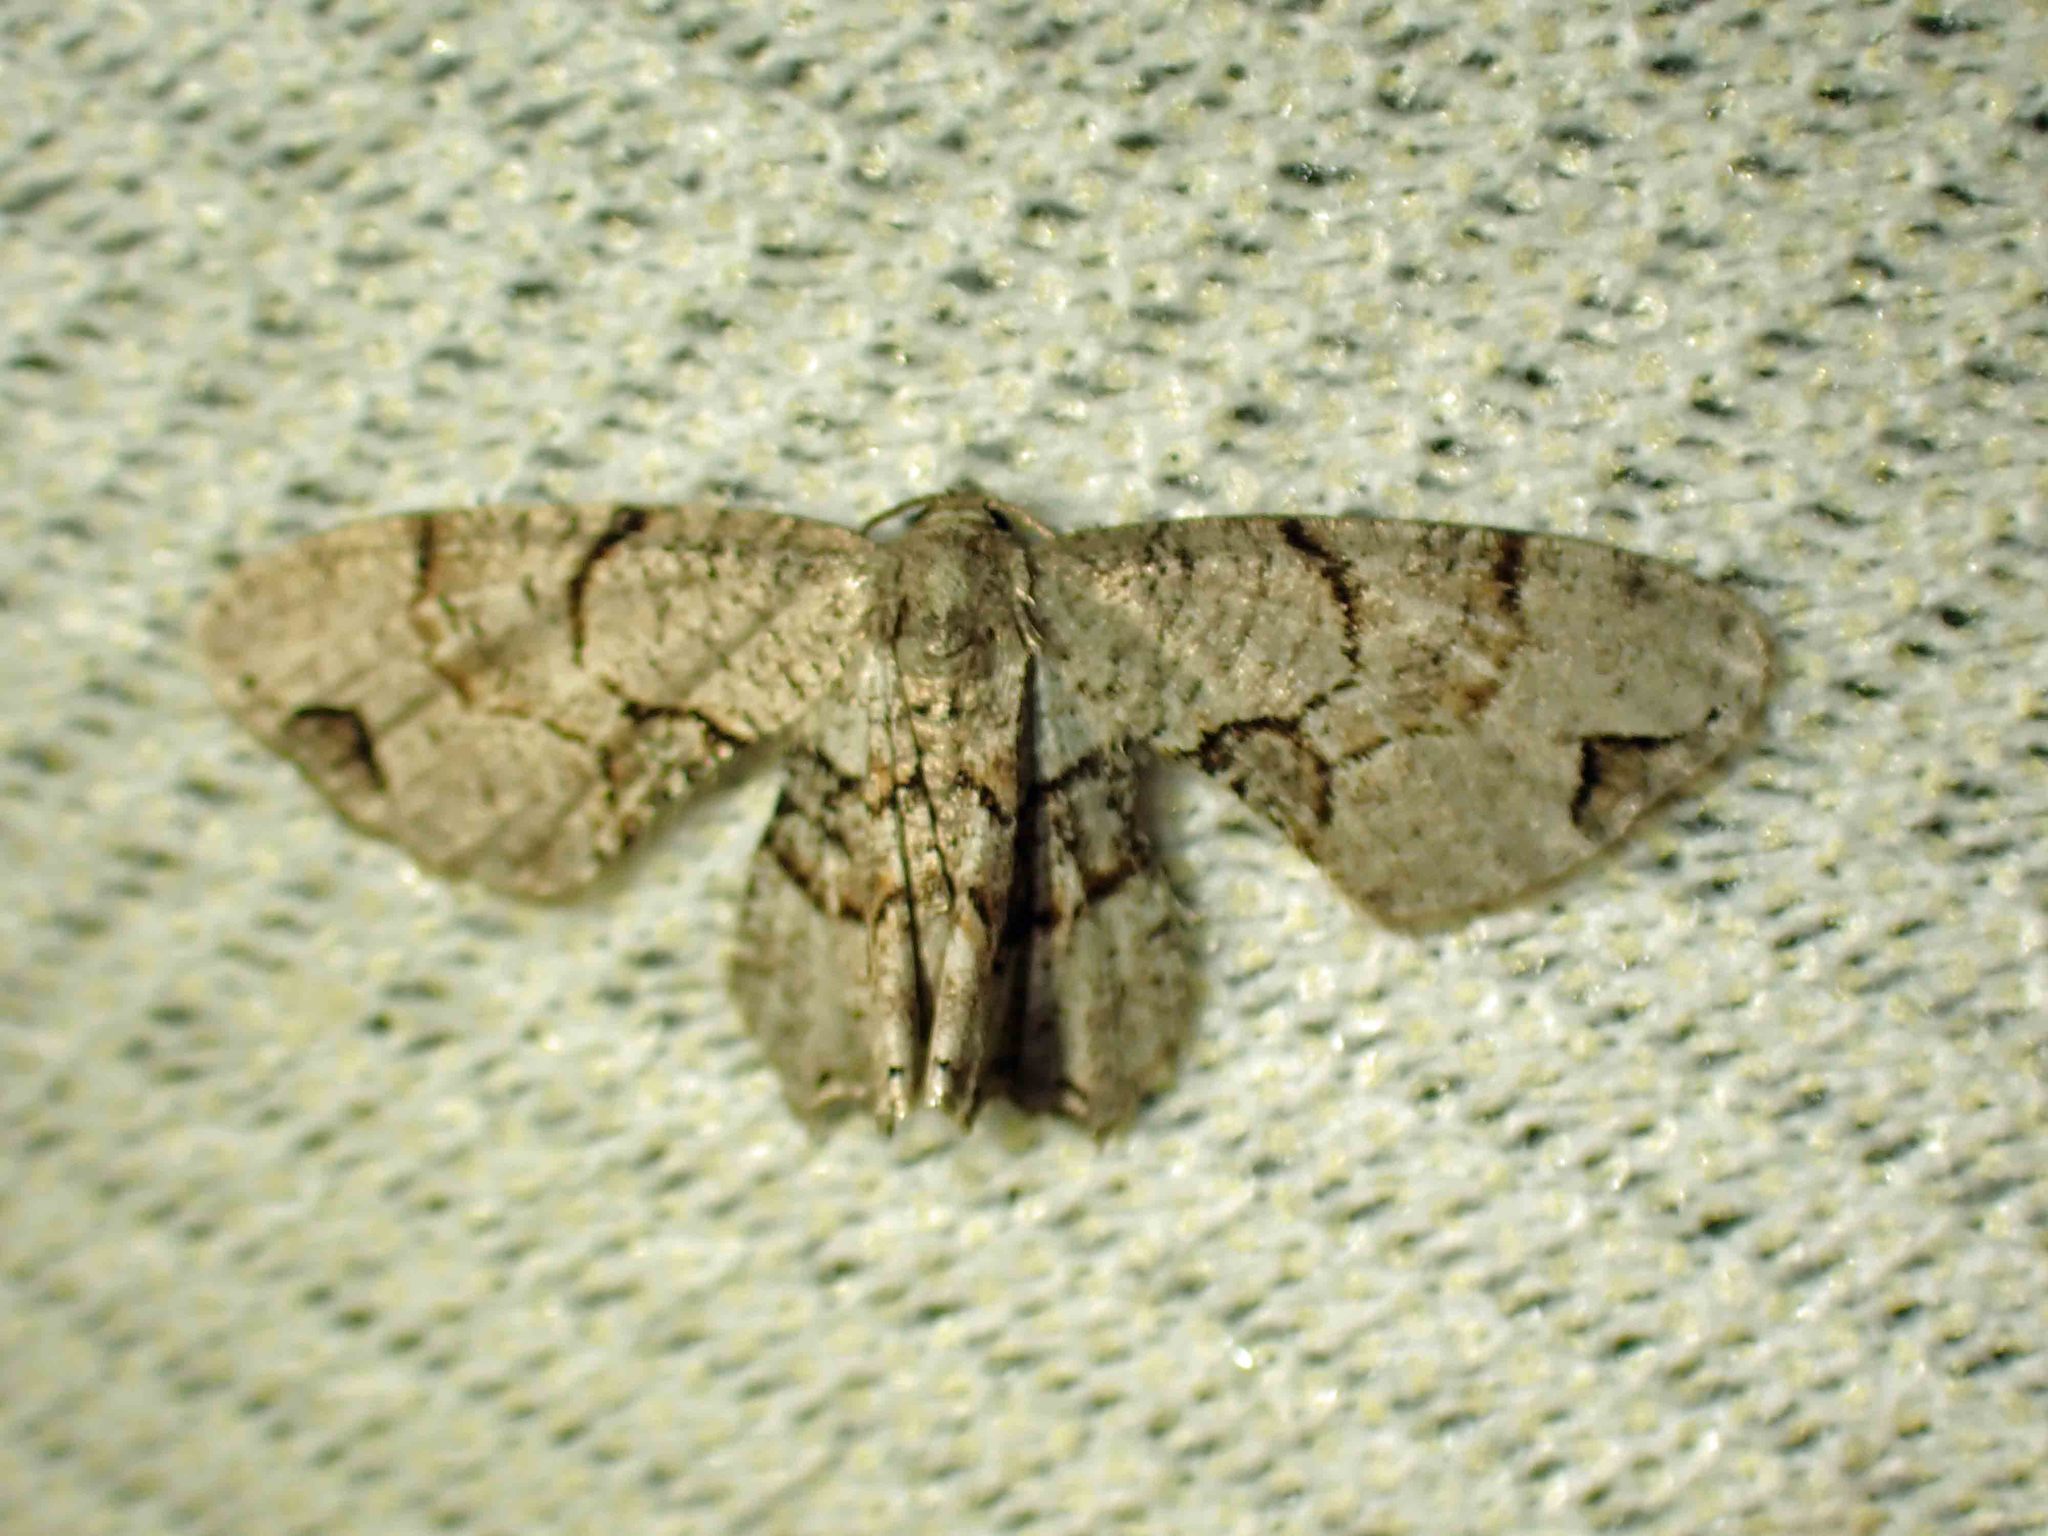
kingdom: Animalia
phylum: Arthropoda
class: Insecta
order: Lepidoptera
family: Uraniidae
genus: Epiplema
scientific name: Epiplema Callizzia amorata
